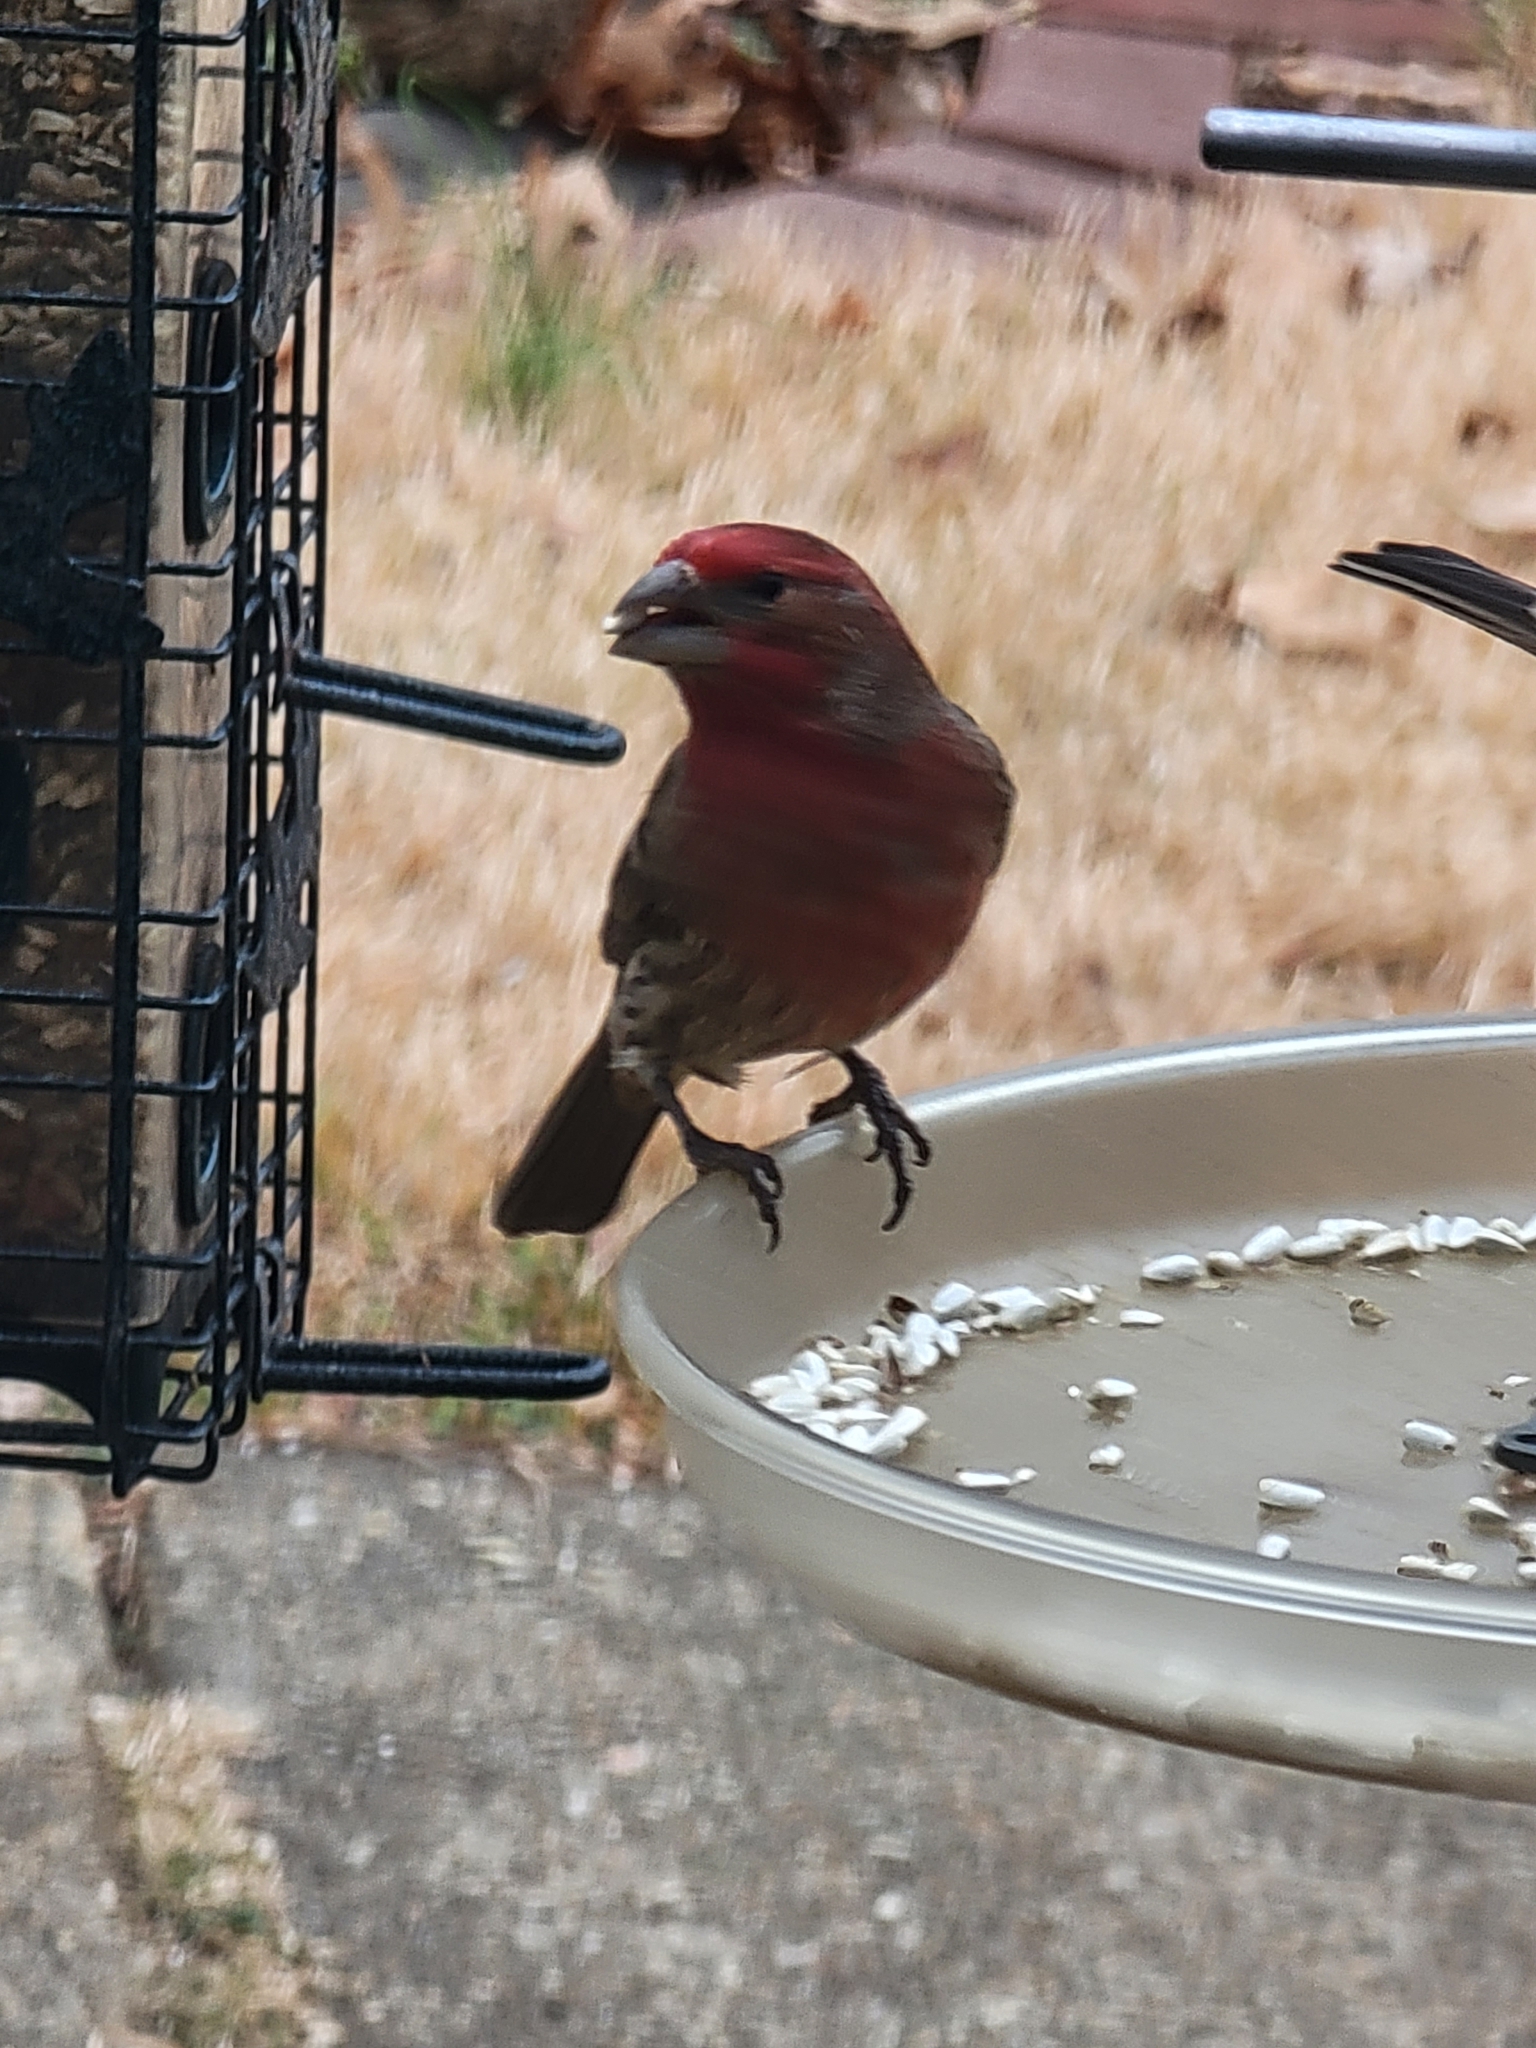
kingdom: Animalia
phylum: Chordata
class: Aves
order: Passeriformes
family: Fringillidae
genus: Haemorhous
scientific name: Haemorhous mexicanus
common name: House finch
